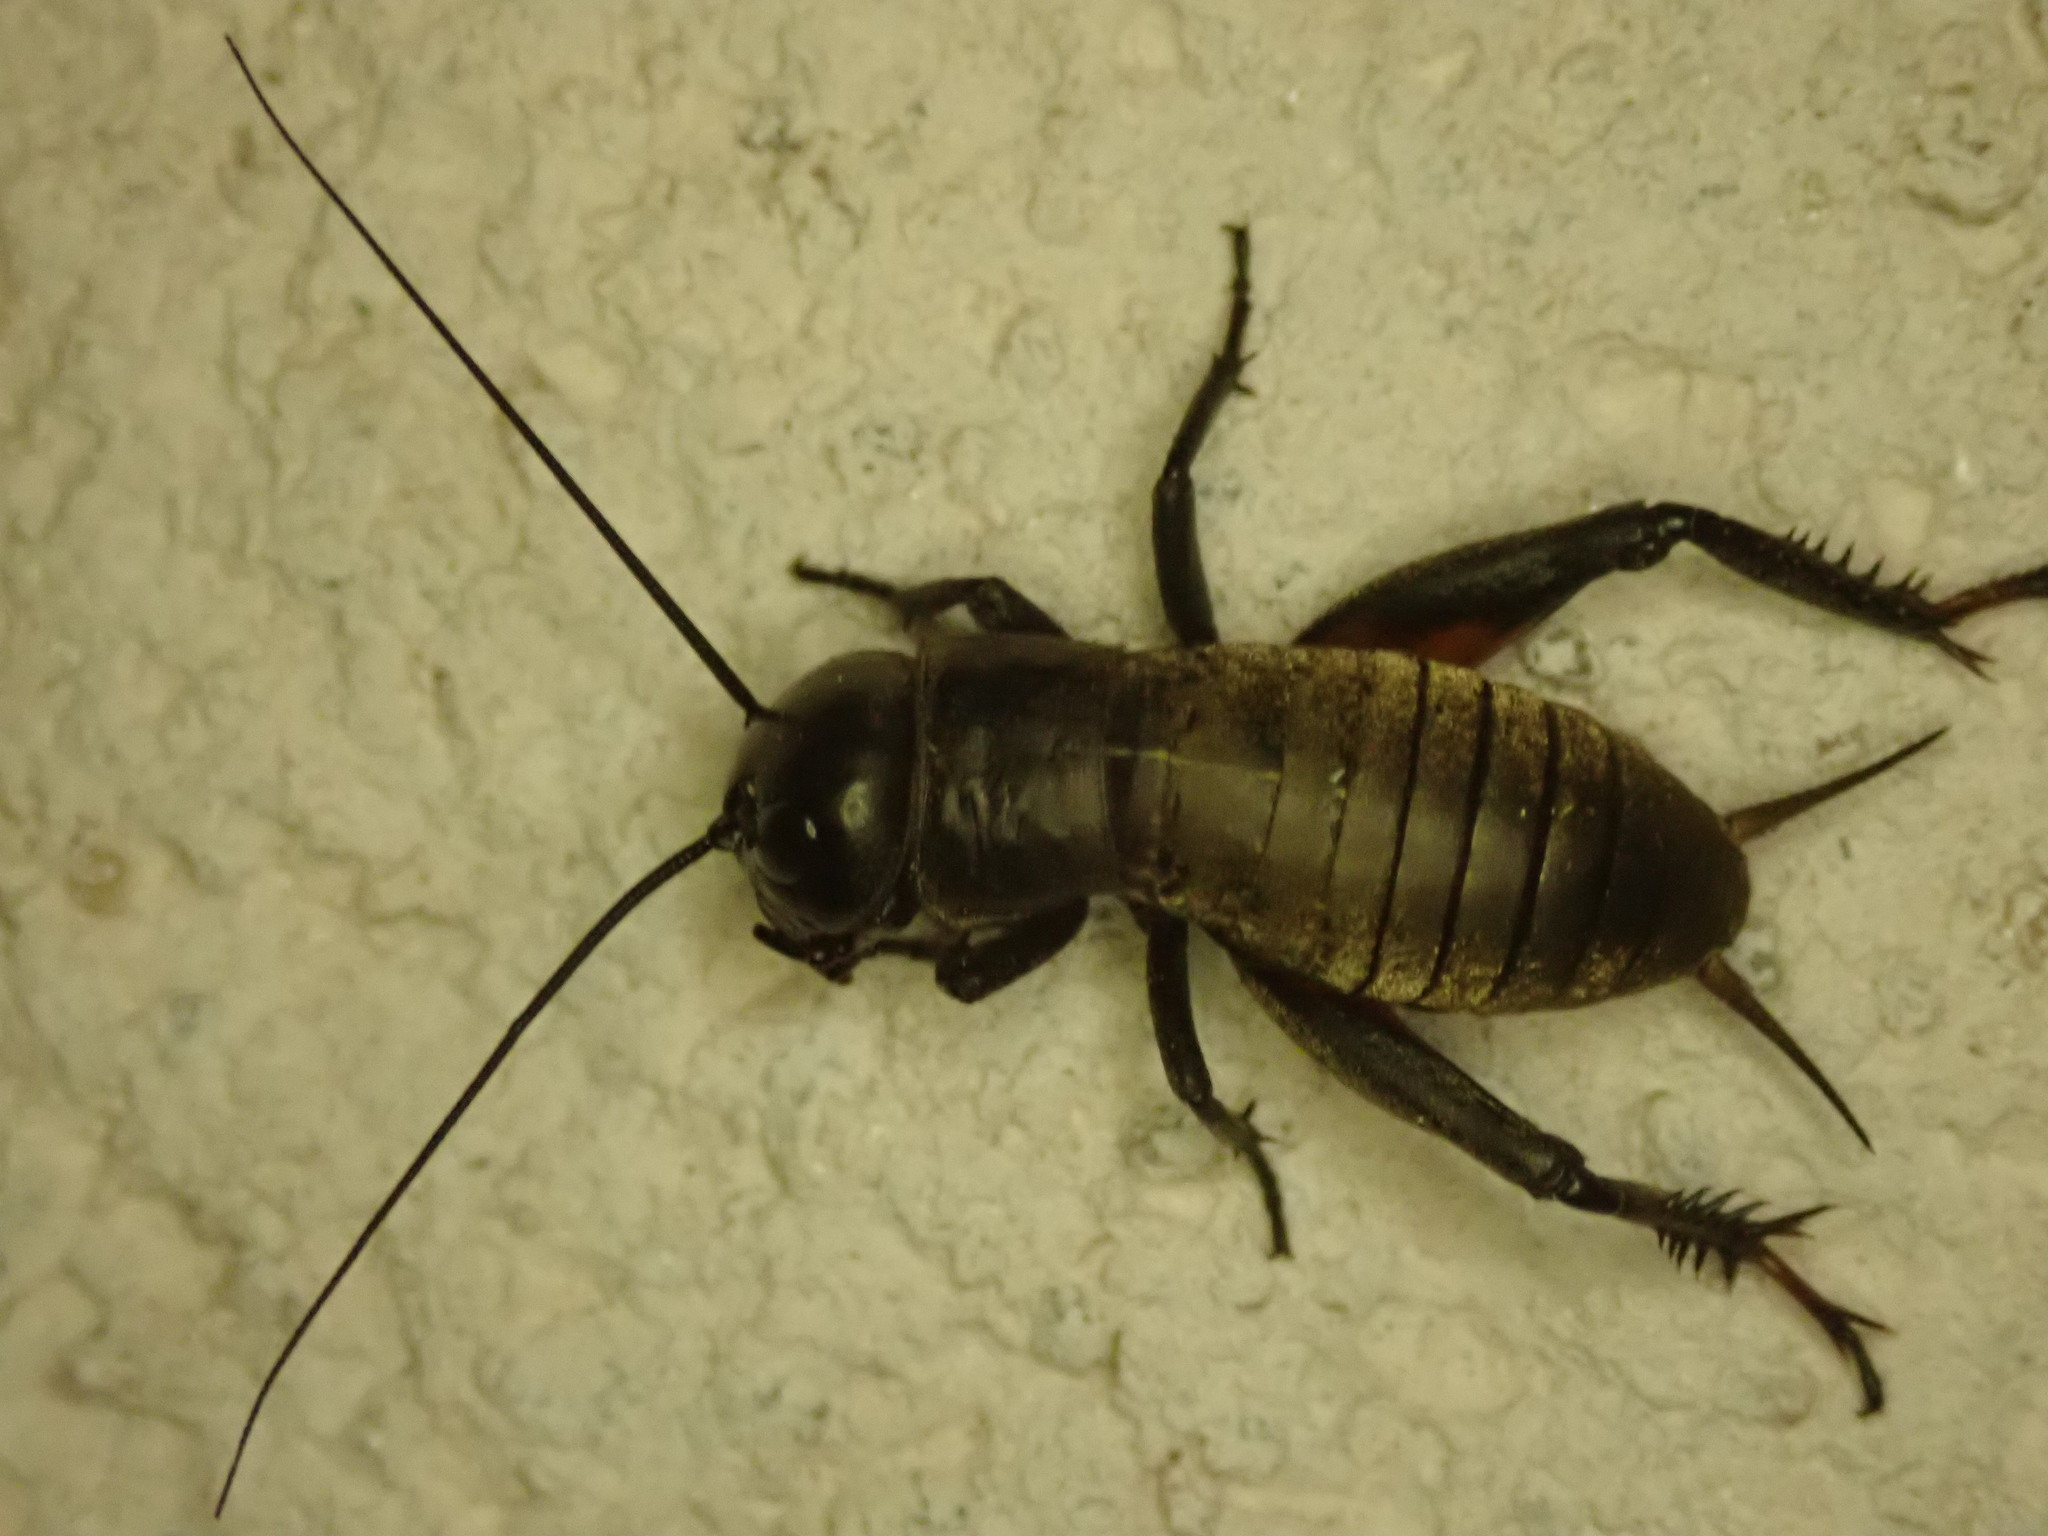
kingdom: Animalia
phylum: Arthropoda
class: Insecta
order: Orthoptera
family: Gryllidae
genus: Gryllus
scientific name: Gryllus campestris
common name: Field cricket
